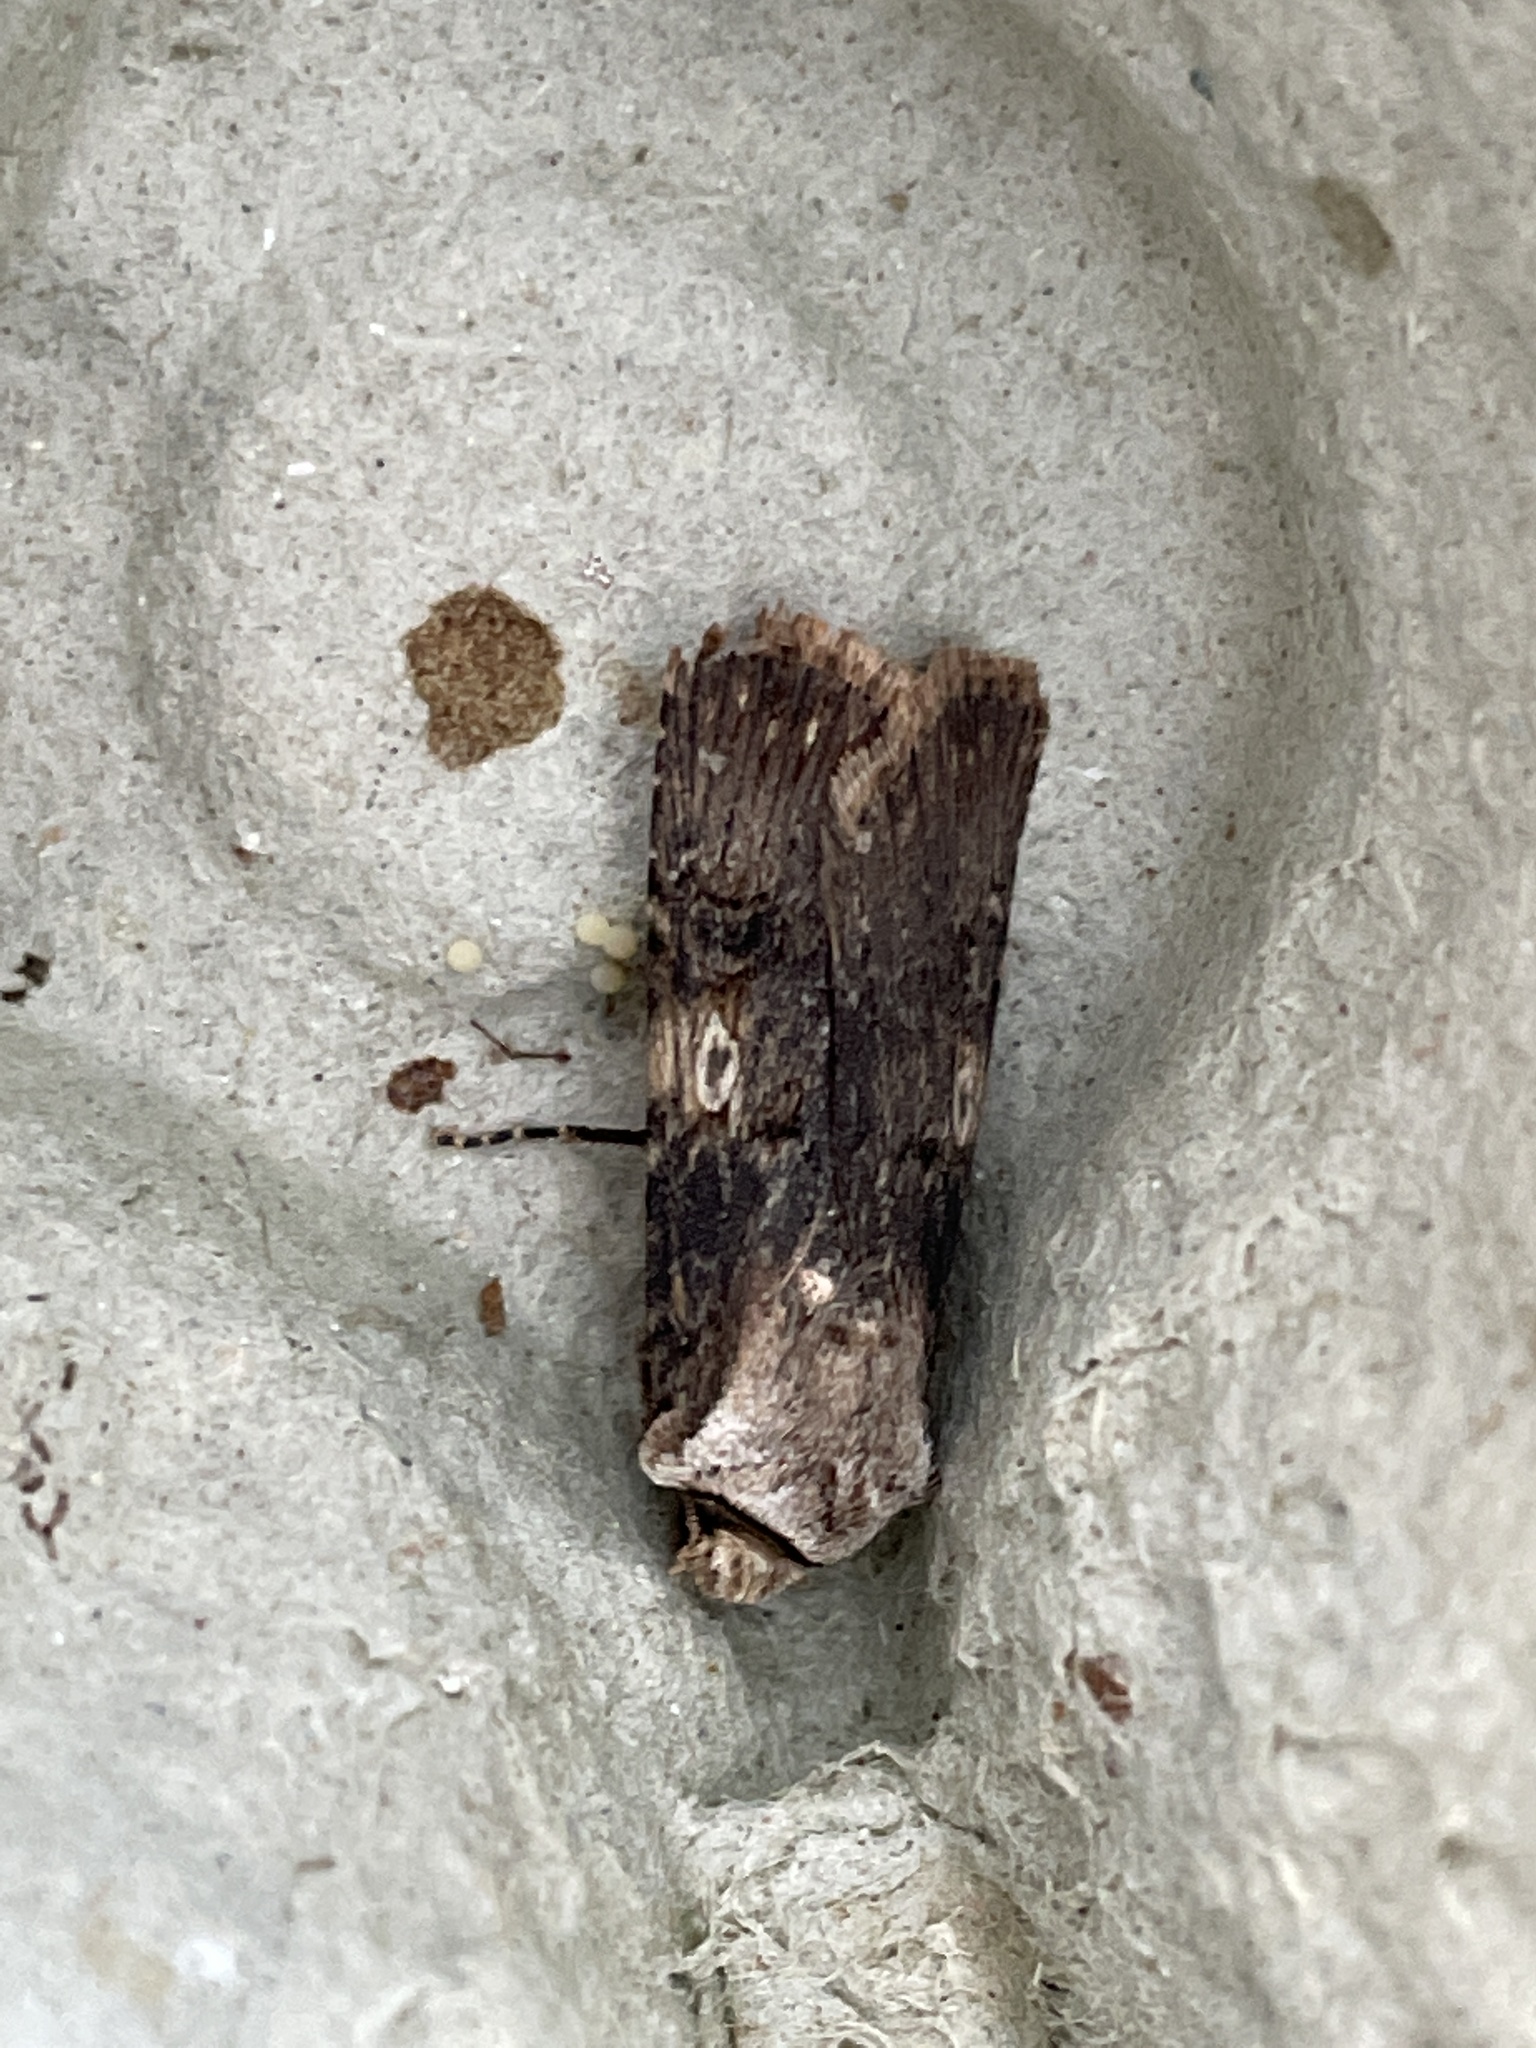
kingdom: Animalia
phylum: Arthropoda
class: Insecta
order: Lepidoptera
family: Noctuidae
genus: Agrotis
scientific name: Agrotis puta
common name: Shuttle-shaped dart
